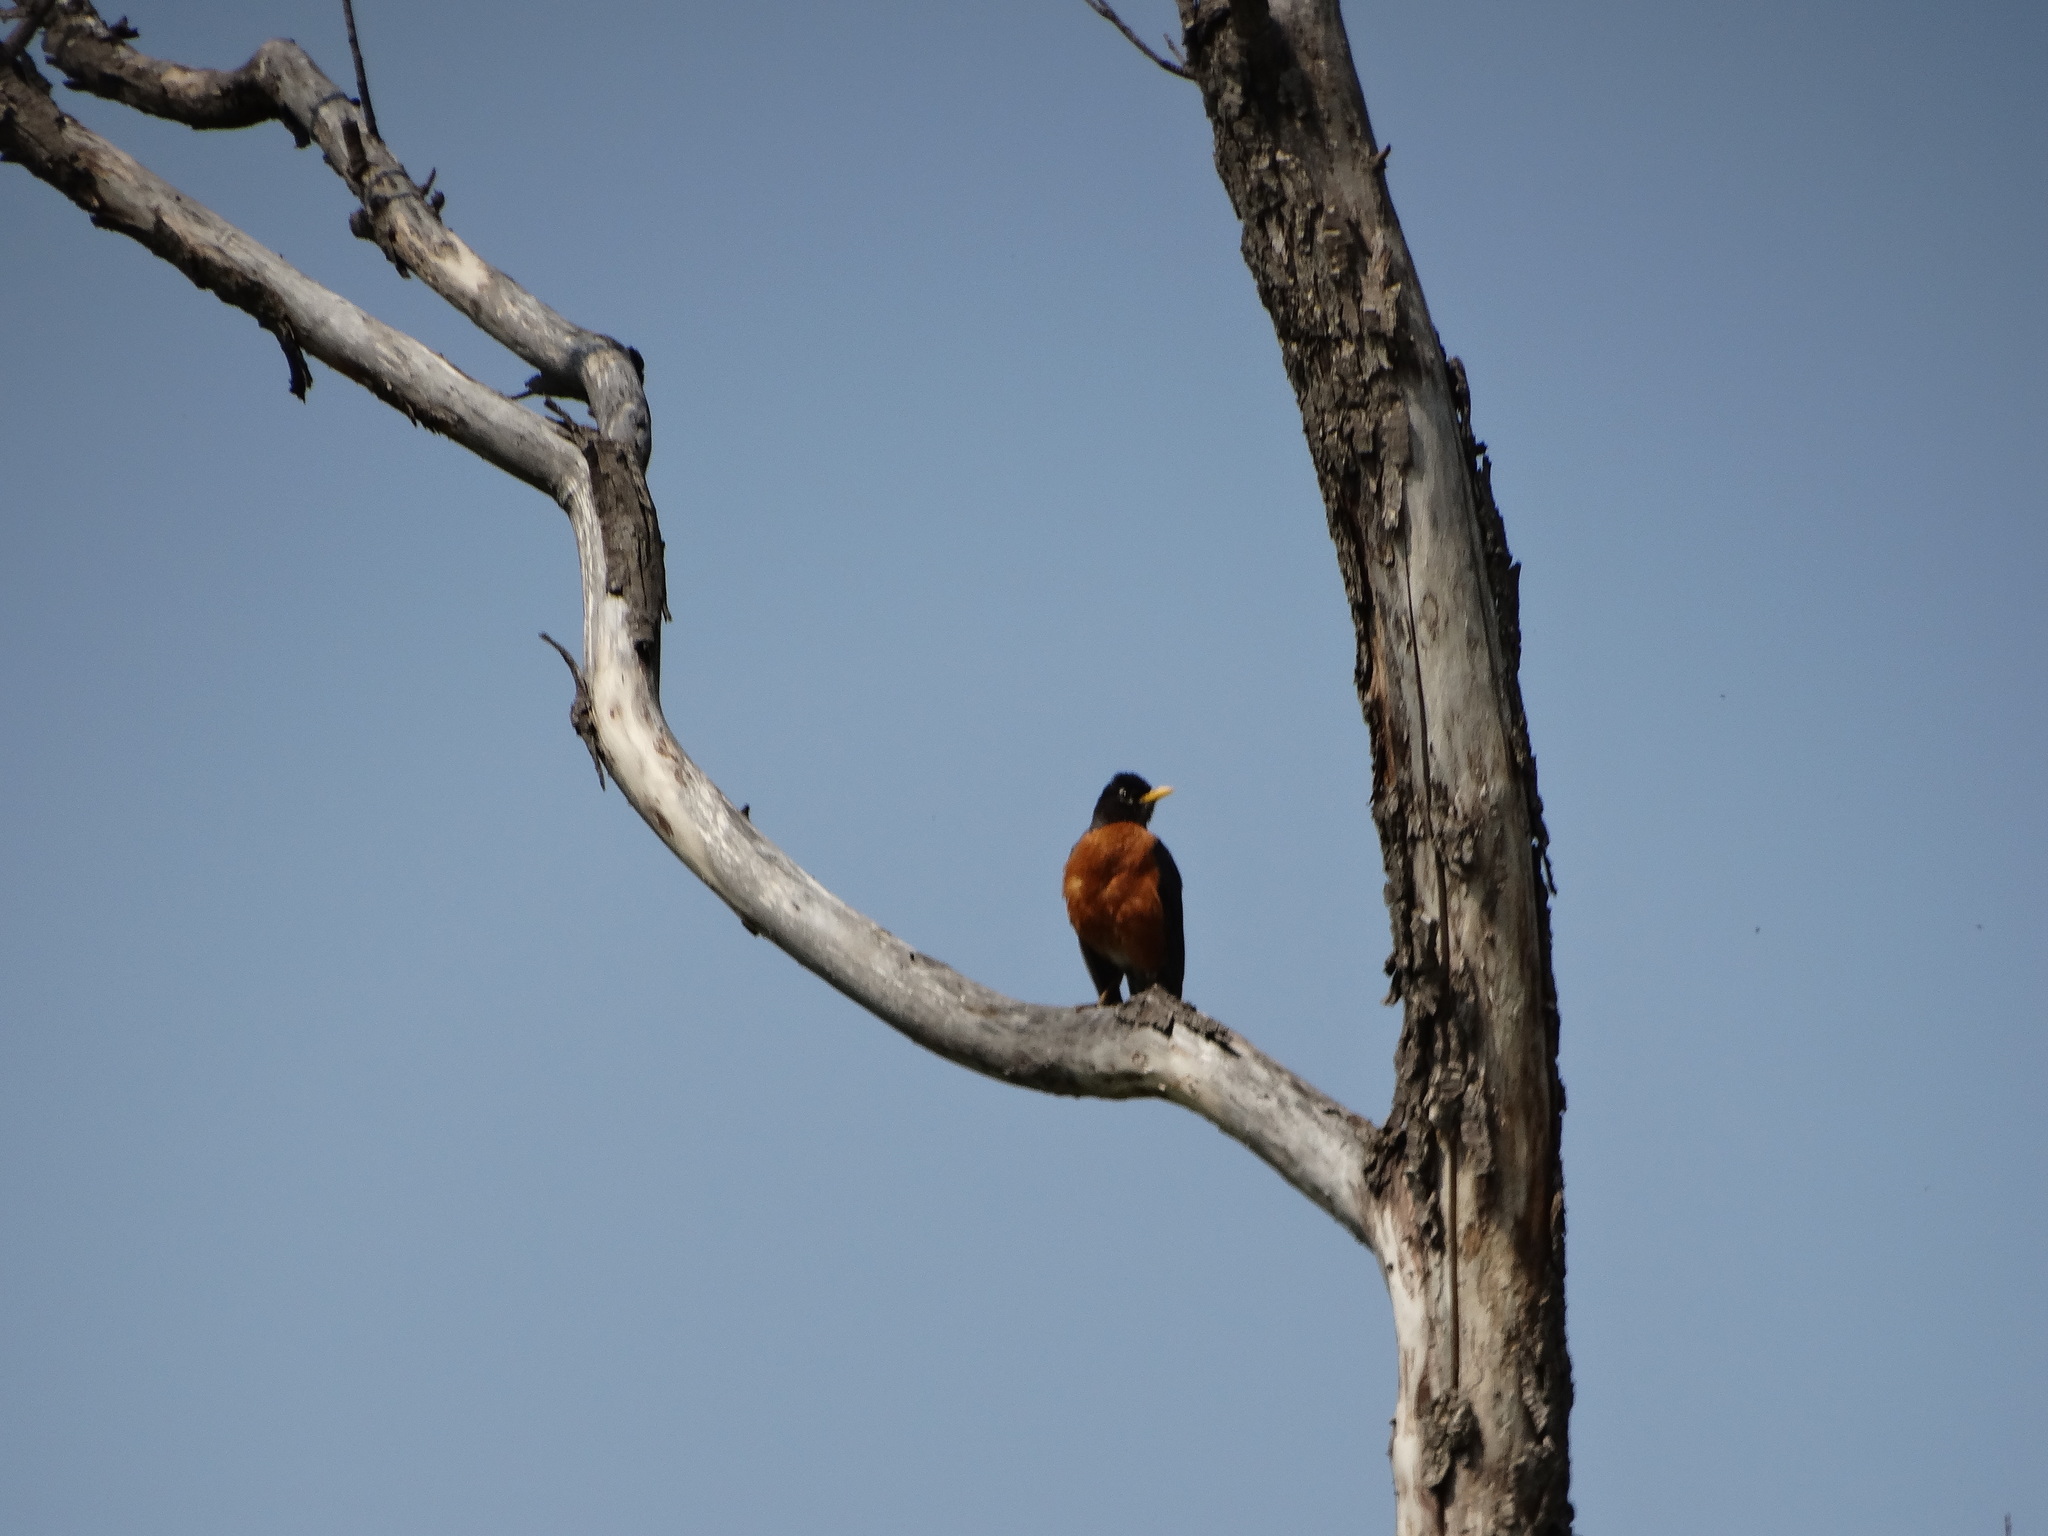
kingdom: Animalia
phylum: Chordata
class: Aves
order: Passeriformes
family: Turdidae
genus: Turdus
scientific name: Turdus migratorius
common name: American robin
